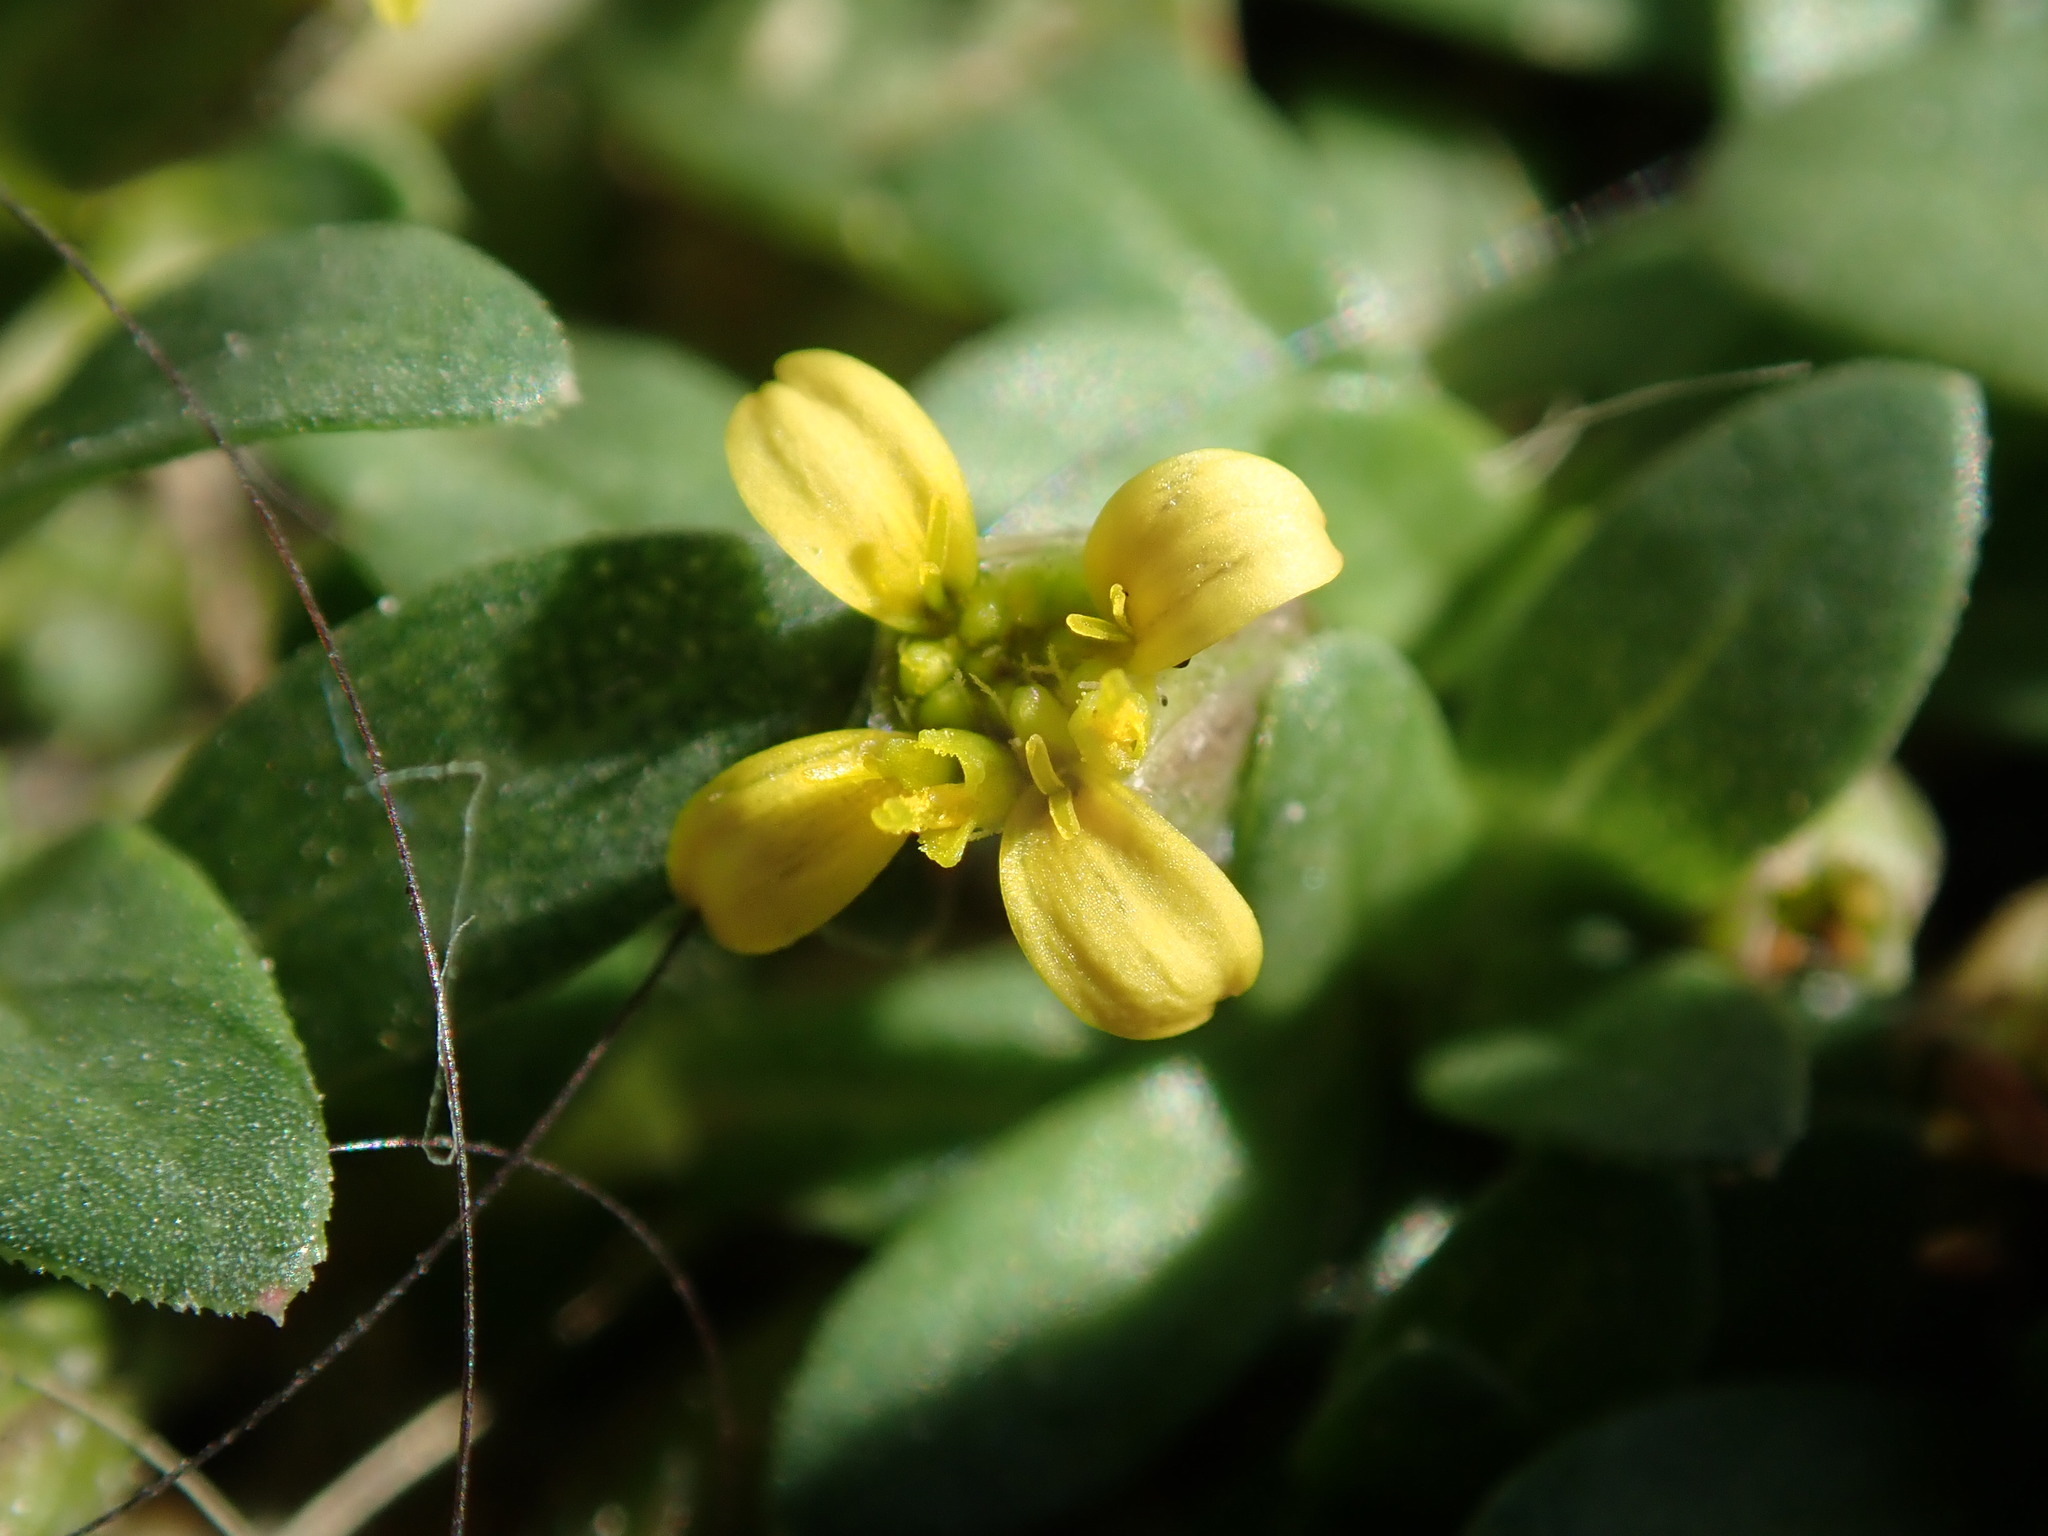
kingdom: Plantae
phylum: Tracheophyta
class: Magnoliopsida
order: Asterales
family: Asteraceae
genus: Pectis
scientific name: Pectis humifusa
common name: Yerba de san juan
